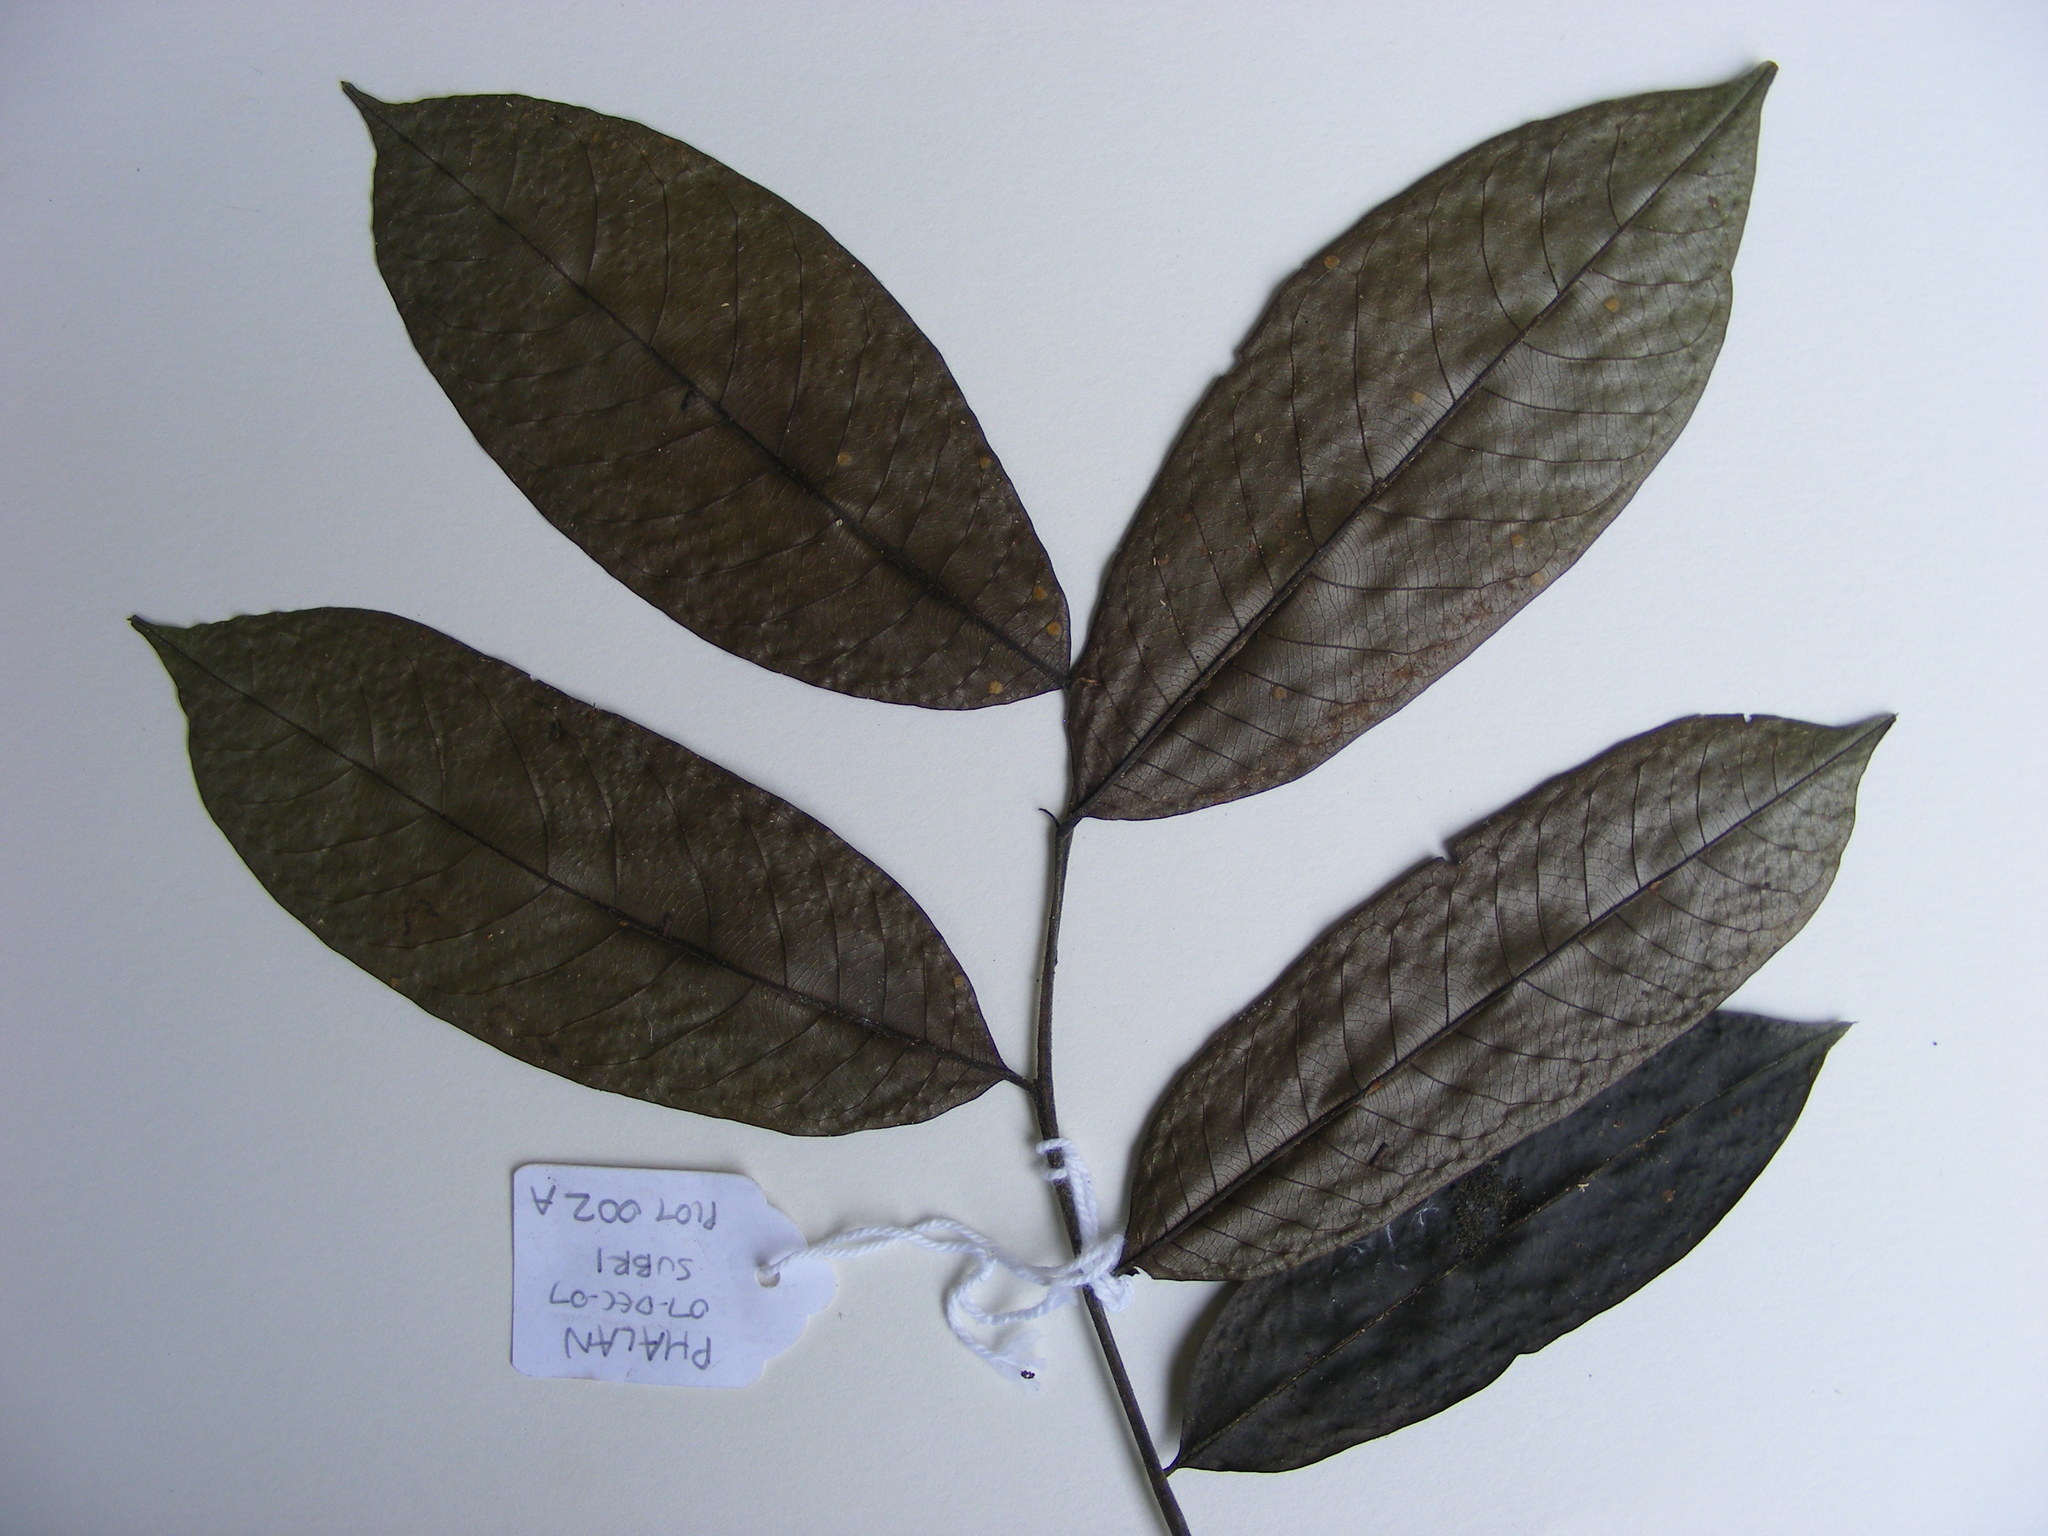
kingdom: Plantae
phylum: Tracheophyta
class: Magnoliopsida
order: Saxifragales
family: Peridiscaceae
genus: Soyauxia
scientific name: Soyauxia velutina
